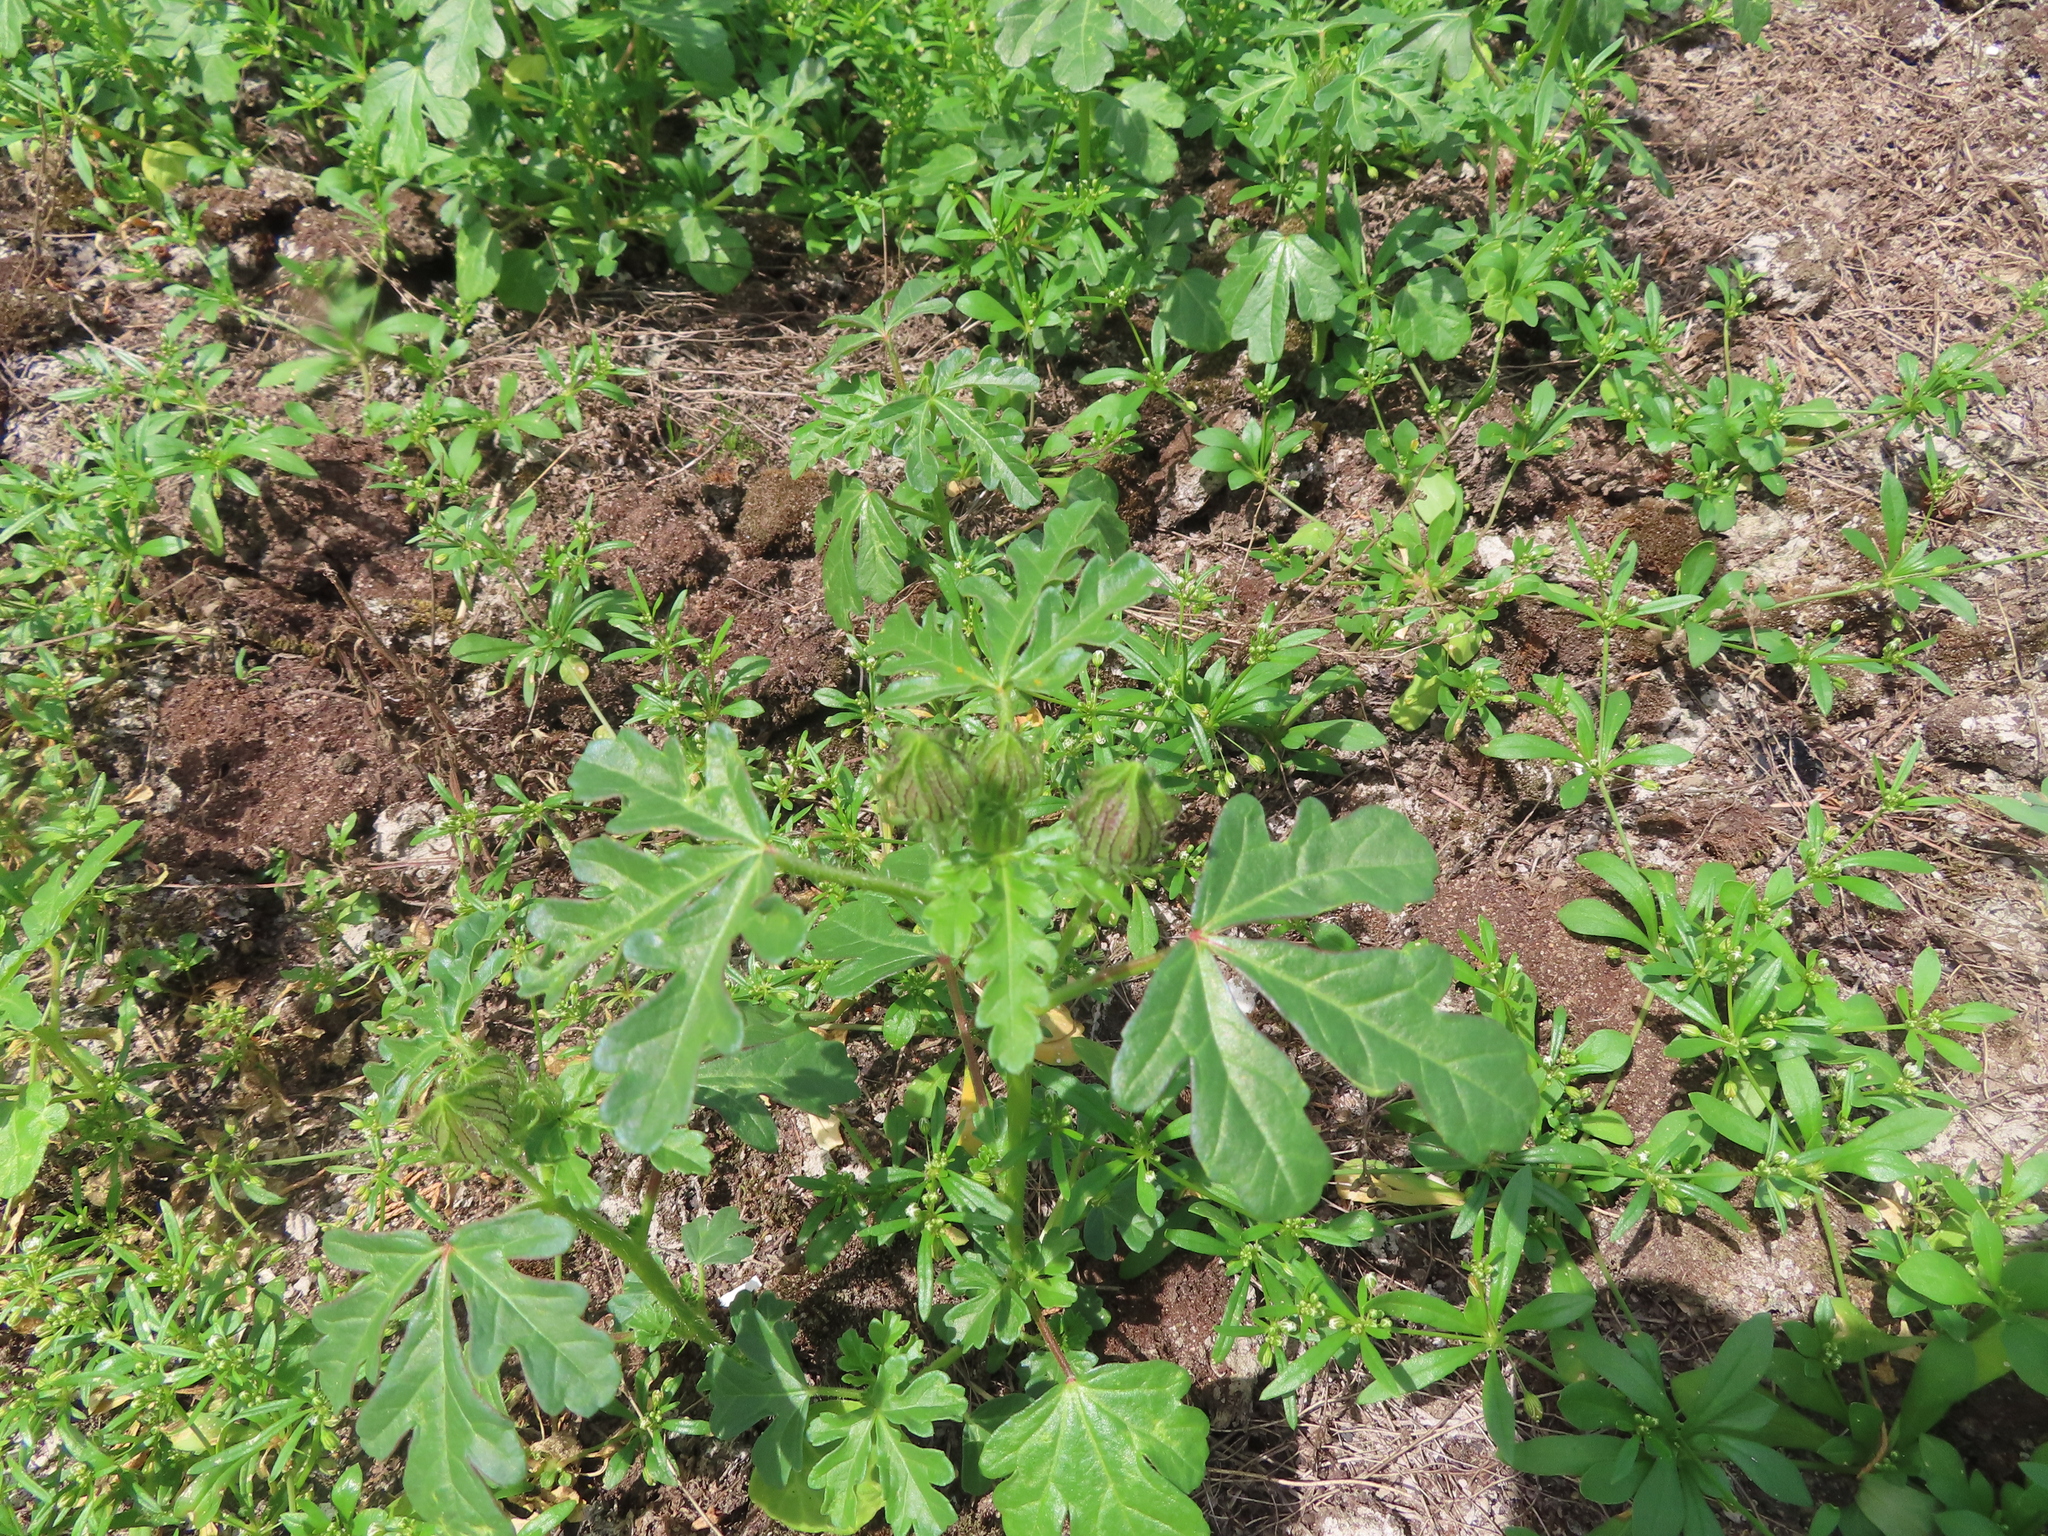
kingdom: Plantae
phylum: Tracheophyta
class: Magnoliopsida
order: Malvales
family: Malvaceae
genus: Hibiscus
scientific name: Hibiscus trionum
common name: Bladder ketmia
